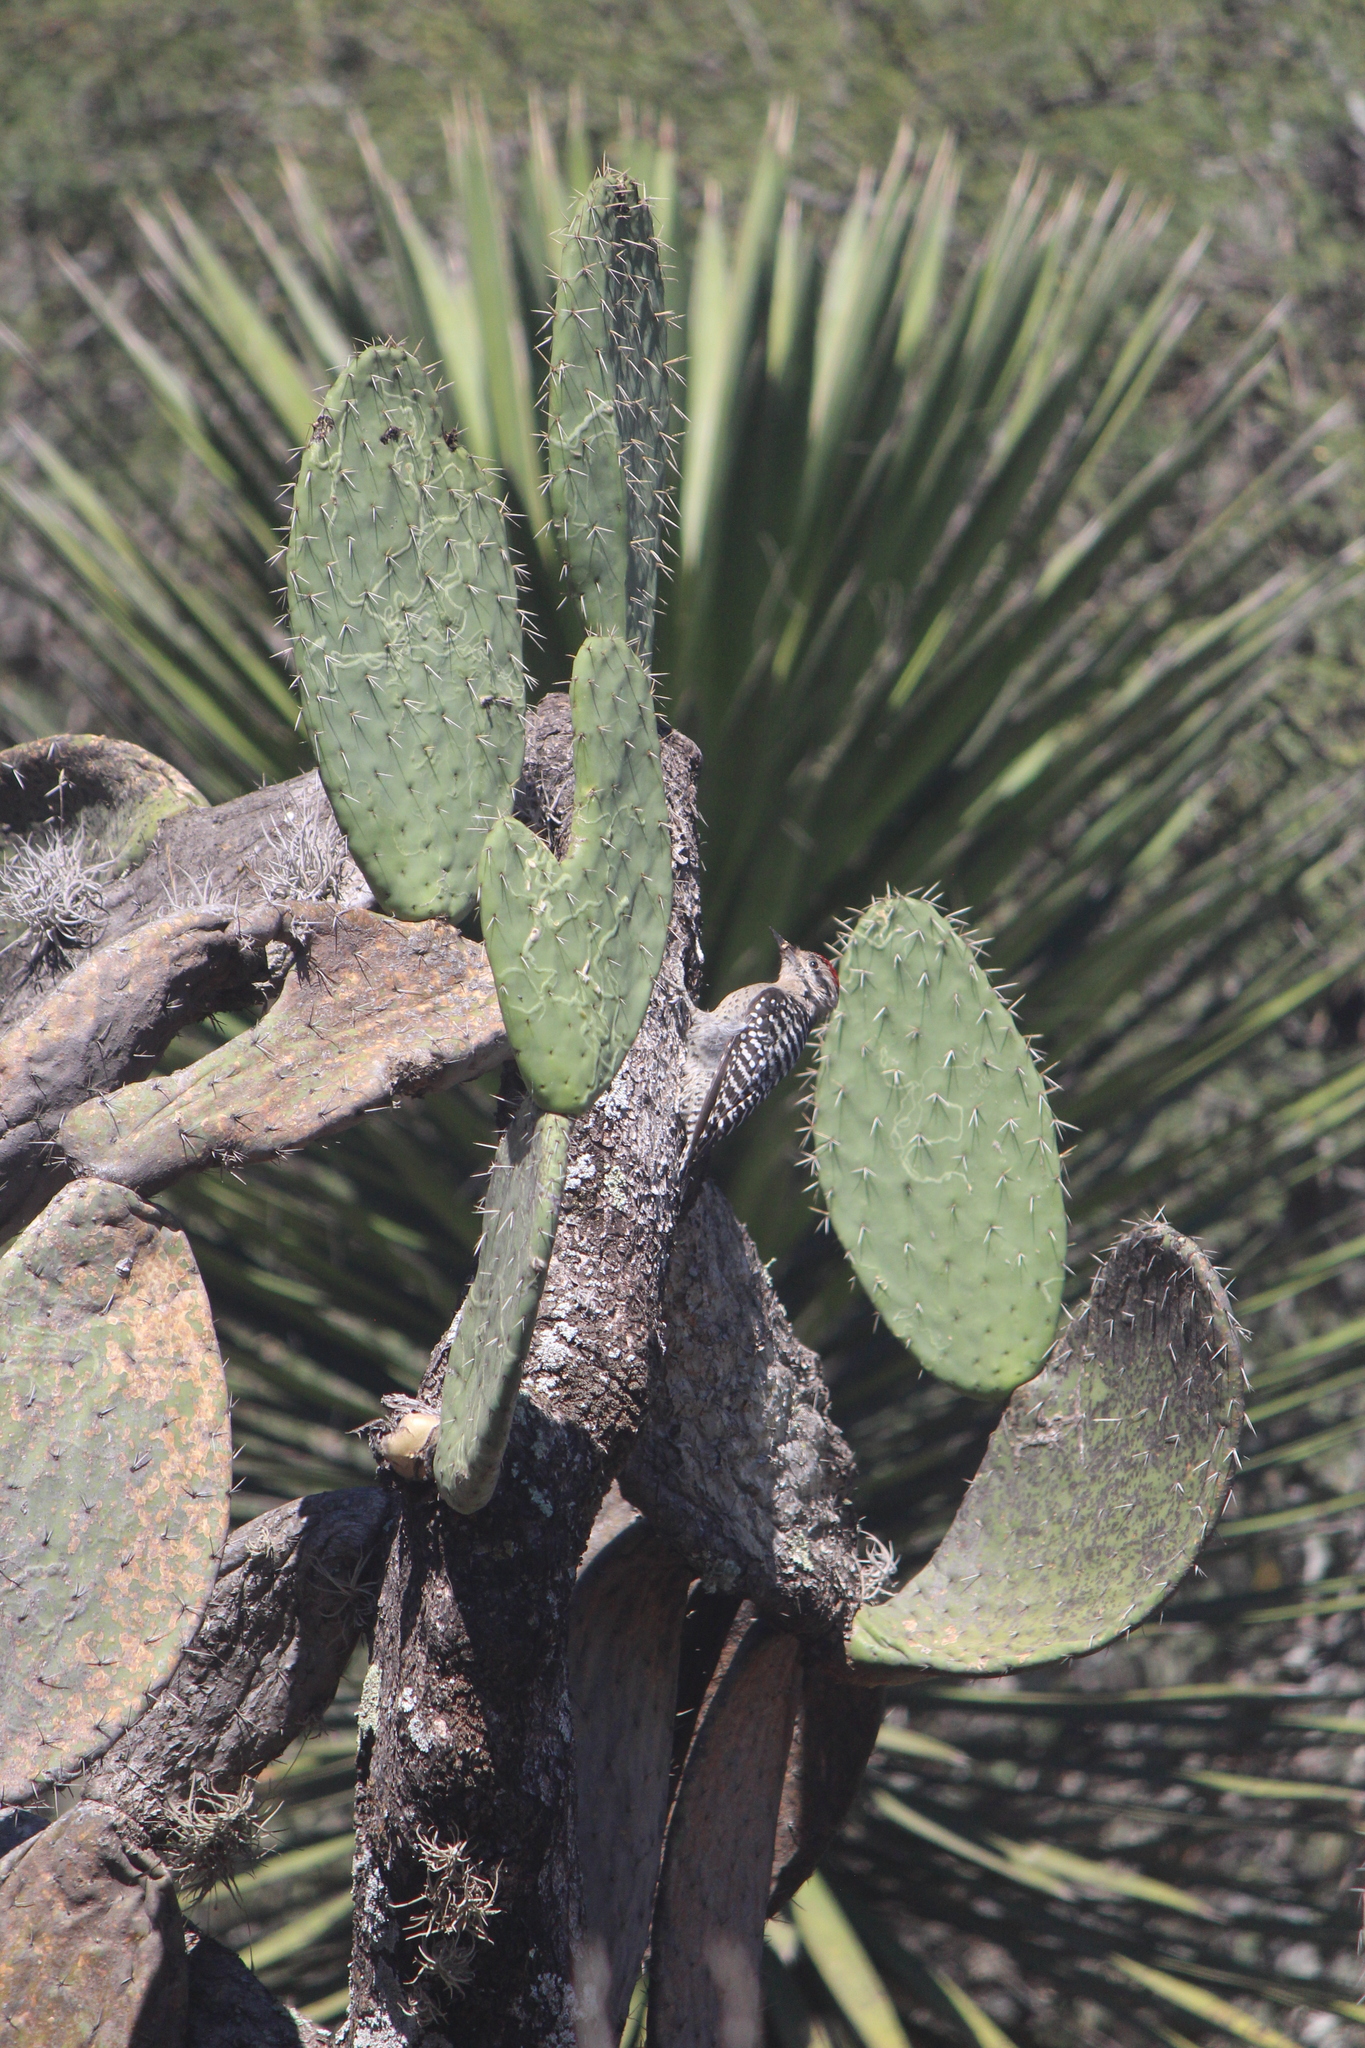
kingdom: Animalia
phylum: Chordata
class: Aves
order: Piciformes
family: Picidae
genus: Dryobates
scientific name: Dryobates scalaris
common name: Ladder-backed woodpecker
